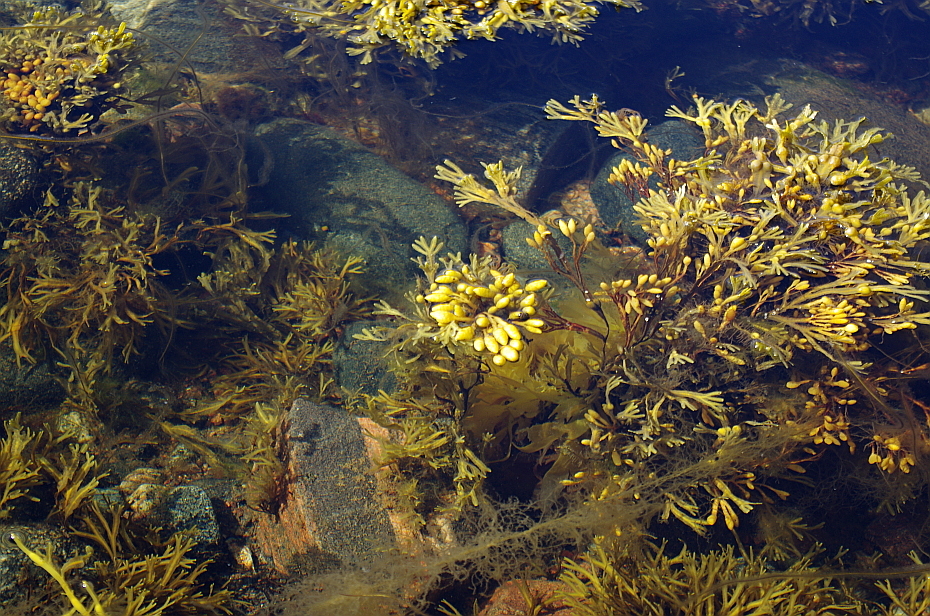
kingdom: Chromista
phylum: Ochrophyta
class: Phaeophyceae
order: Fucales
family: Fucaceae
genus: Fucus
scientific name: Fucus vesiculosus
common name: Bladder wrack
